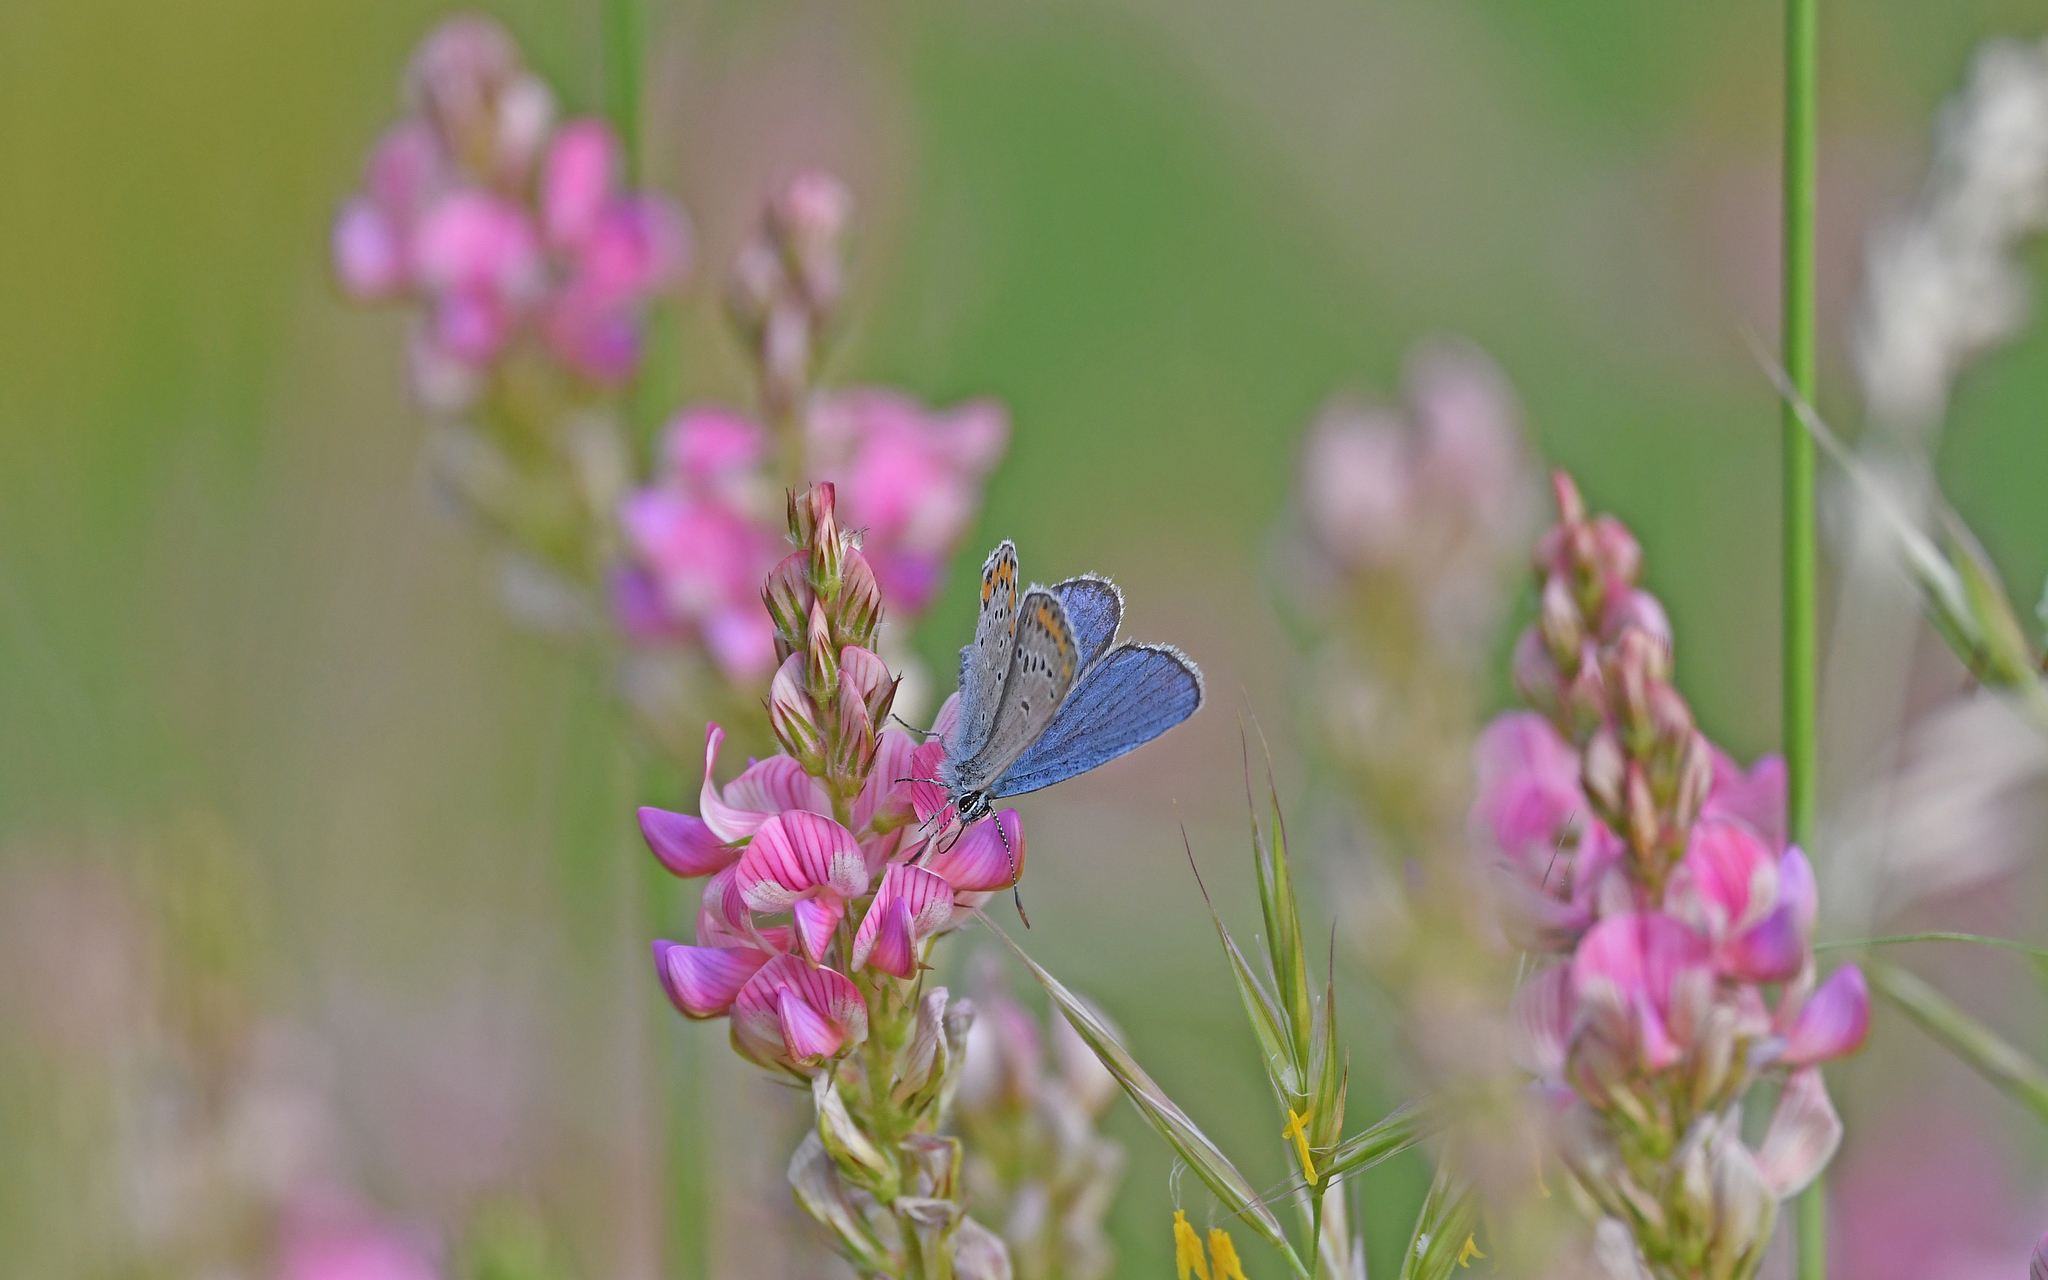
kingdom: Animalia
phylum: Arthropoda
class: Insecta
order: Lepidoptera
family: Lycaenidae
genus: Plebejus
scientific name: Plebejus argyrognomon
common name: Reverdin's blue
